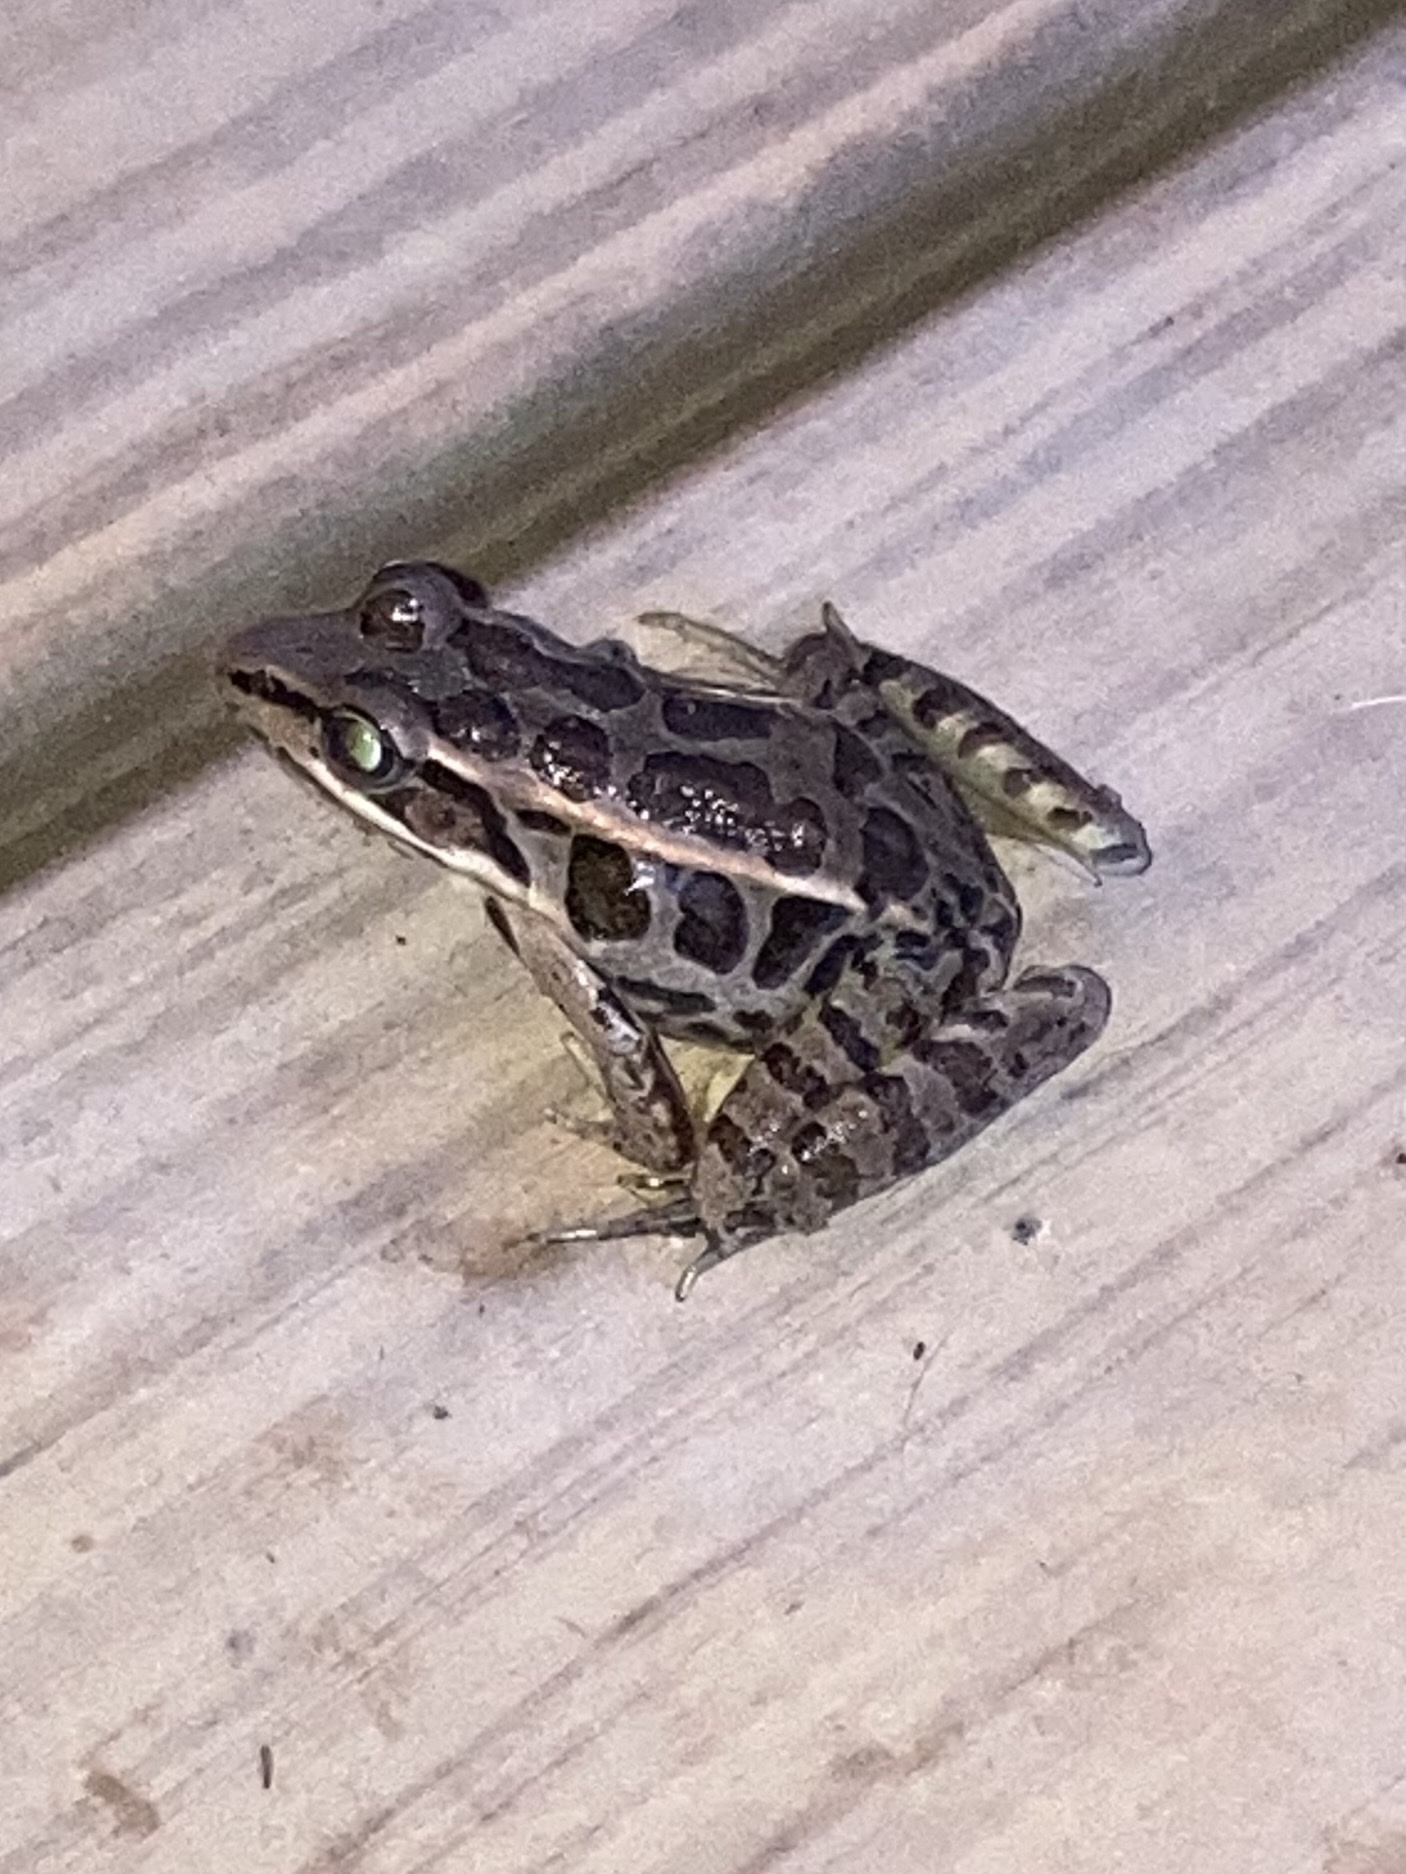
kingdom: Animalia
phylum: Chordata
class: Amphibia
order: Anura
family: Ranidae
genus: Lithobates
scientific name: Lithobates palustris
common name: Pickerel frog
